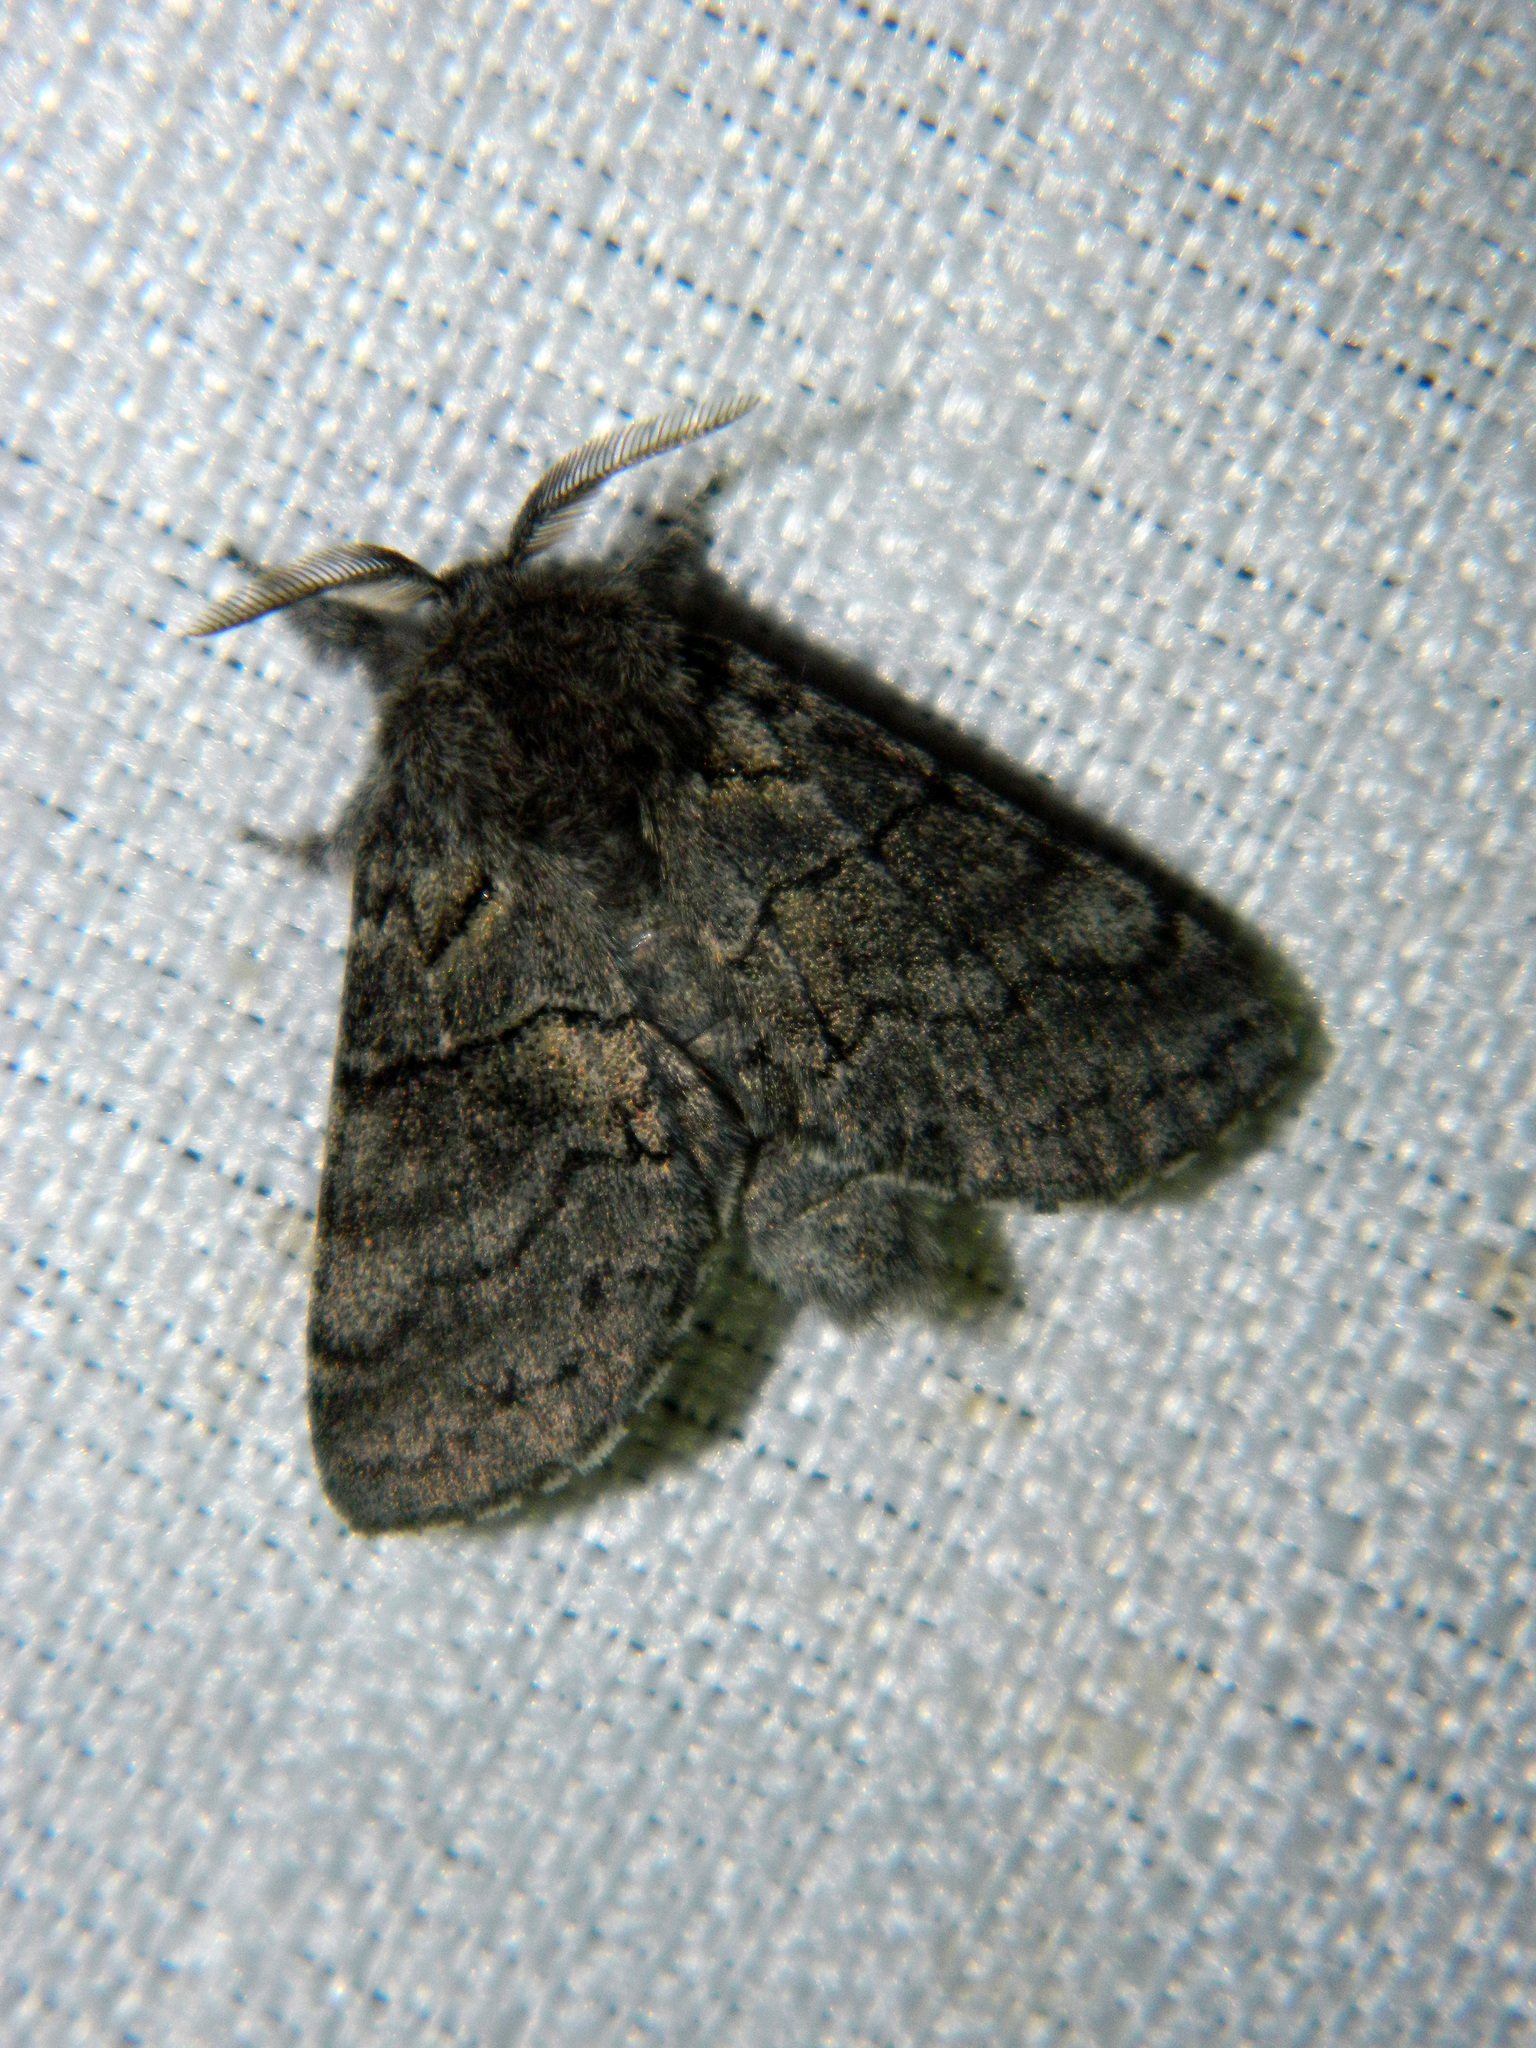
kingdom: Animalia
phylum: Arthropoda
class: Insecta
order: Lepidoptera
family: Notodontidae
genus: Gluphisia
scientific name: Gluphisia septentrionis
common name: Common gluphisia
